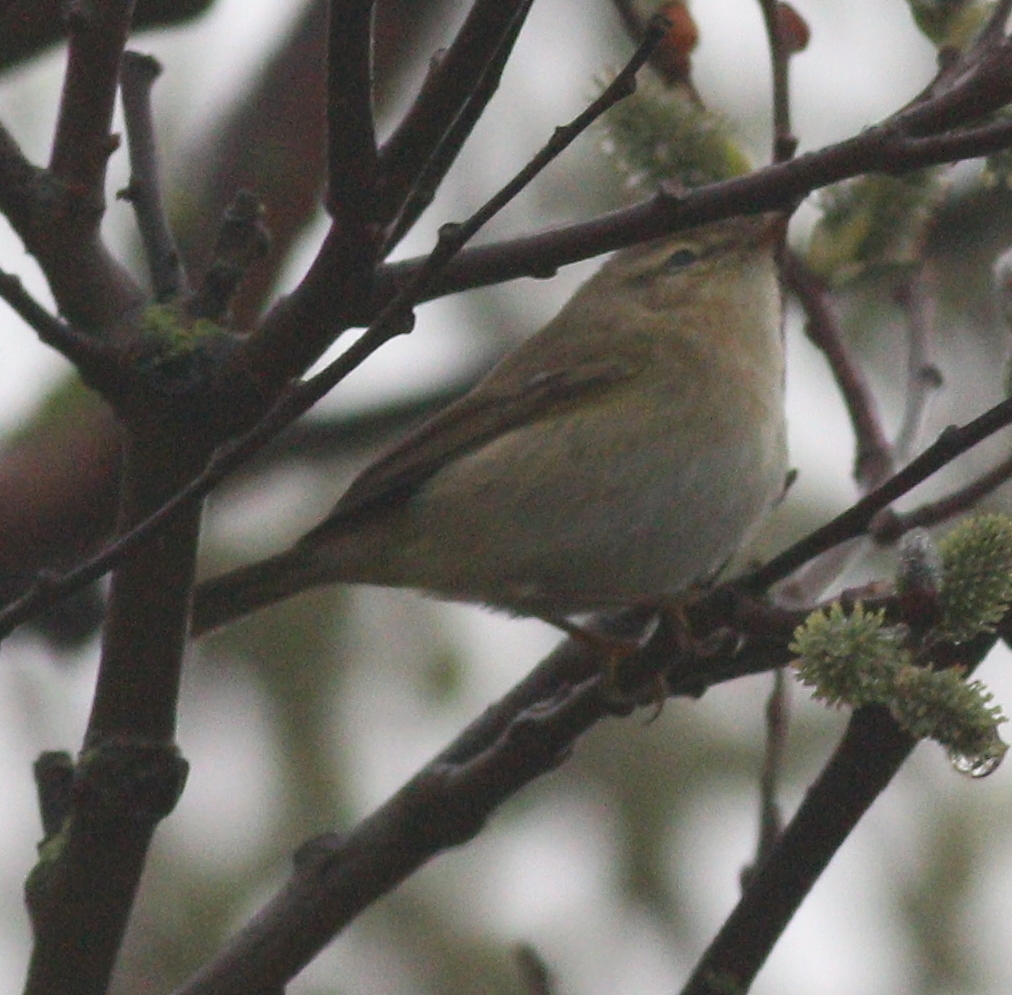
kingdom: Animalia
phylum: Chordata
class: Aves
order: Passeriformes
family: Phylloscopidae
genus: Phylloscopus
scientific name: Phylloscopus collybita
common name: Common chiffchaff
